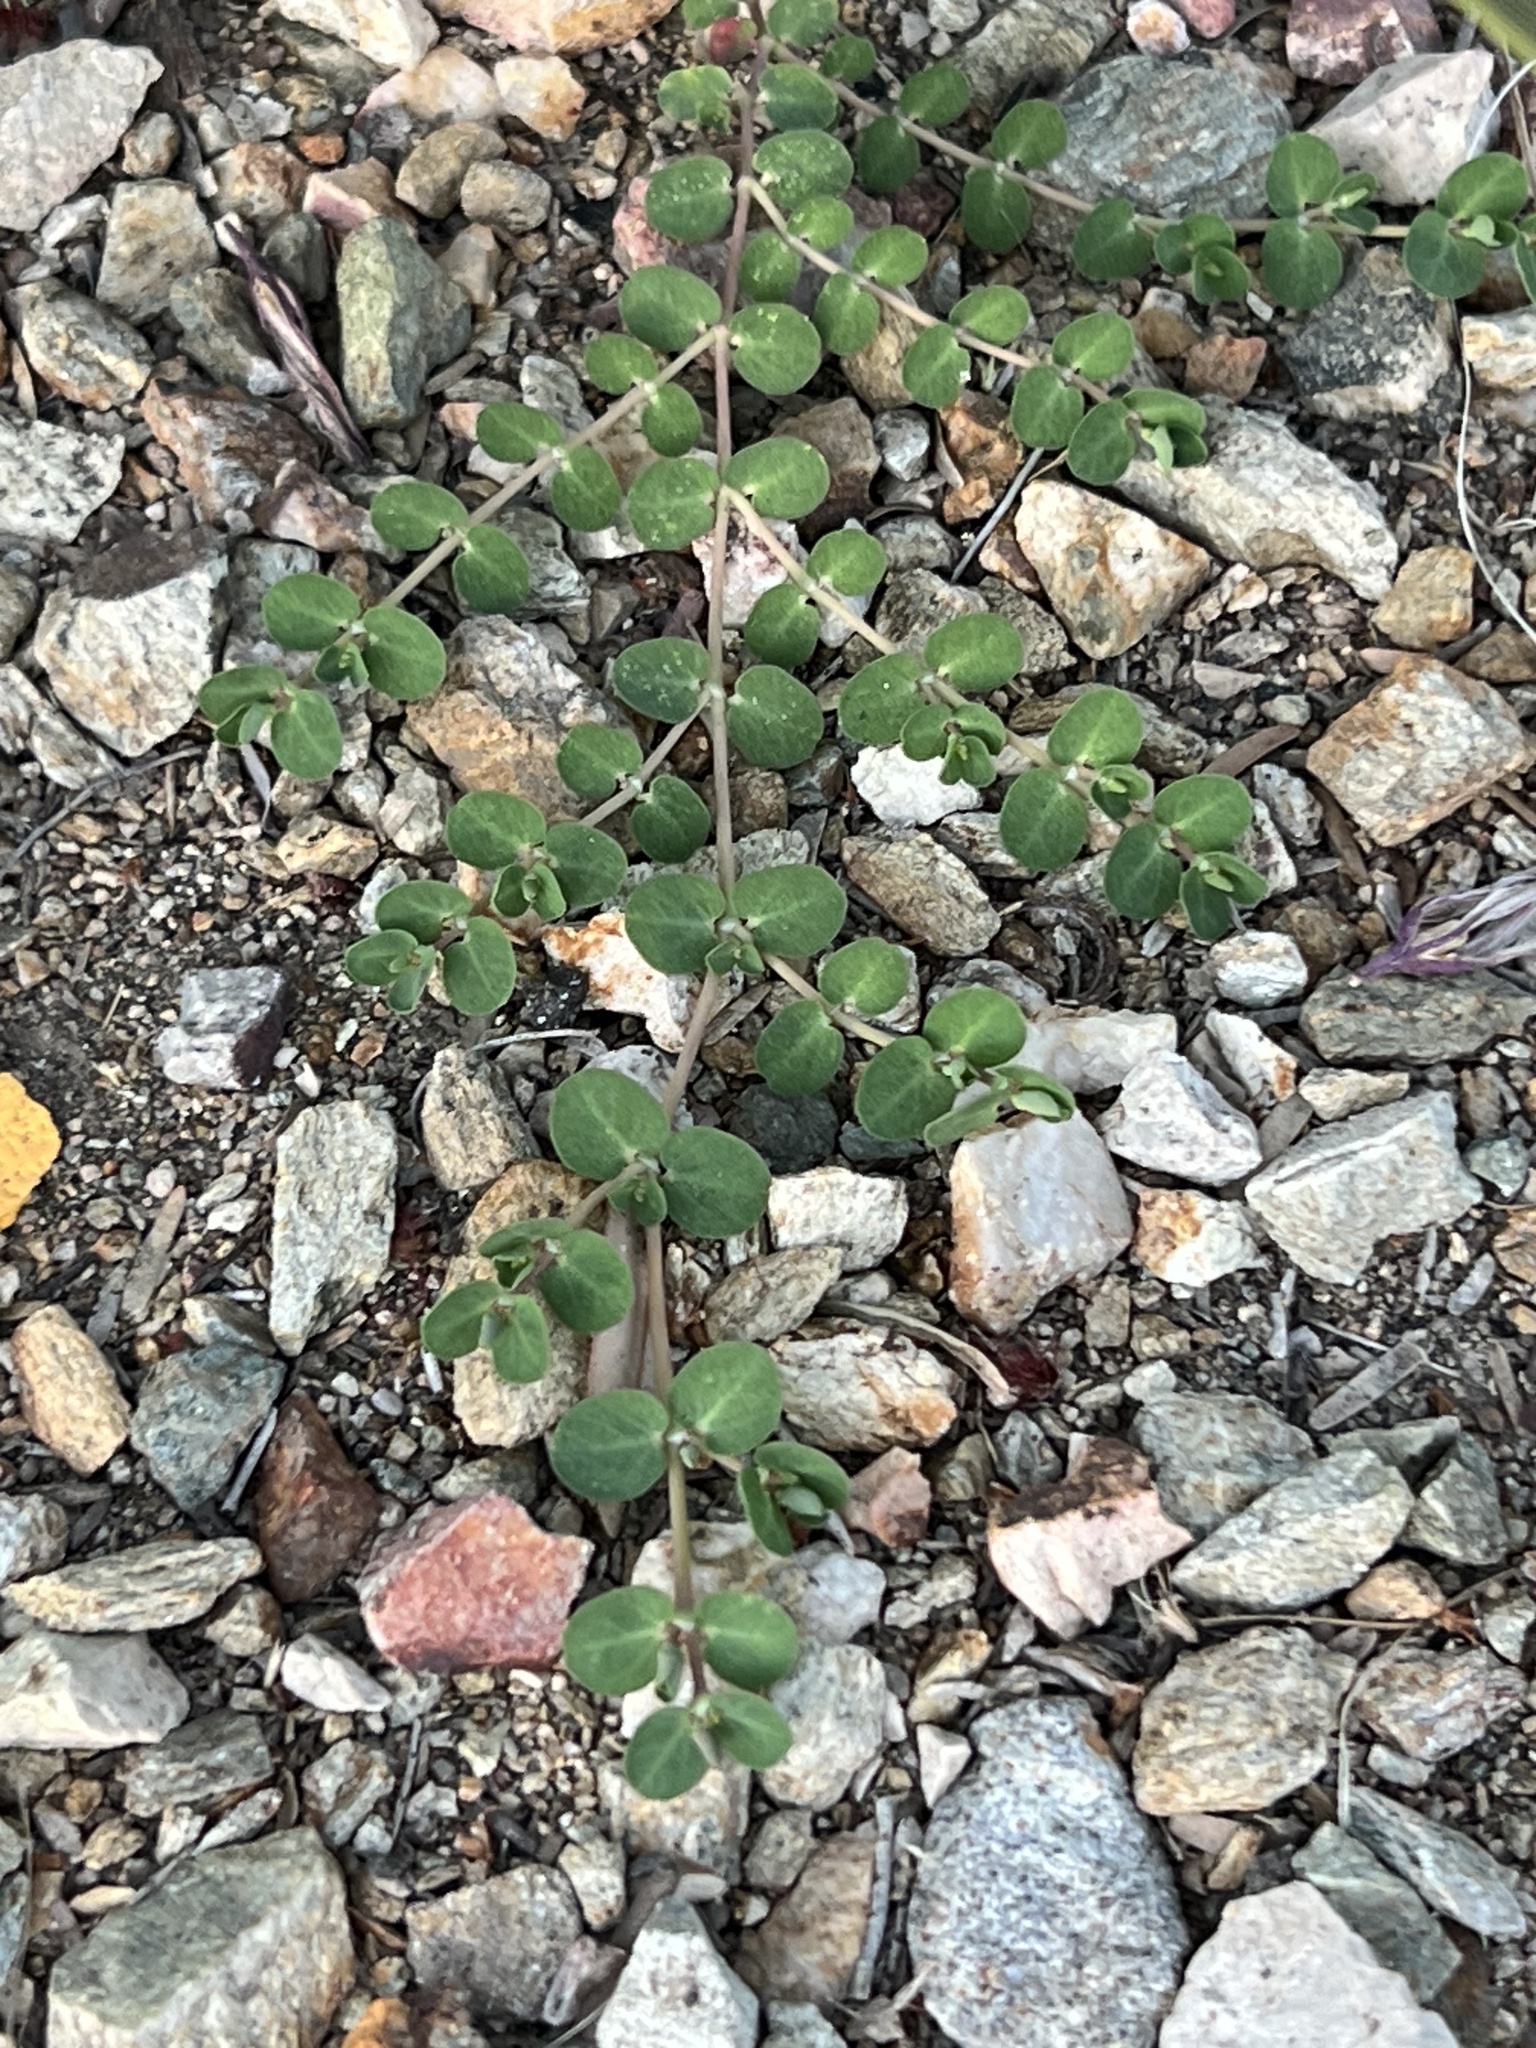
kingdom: Plantae
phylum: Tracheophyta
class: Magnoliopsida
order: Malpighiales
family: Euphorbiaceae
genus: Euphorbia
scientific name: Euphorbia serpens
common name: Matted sandmat
